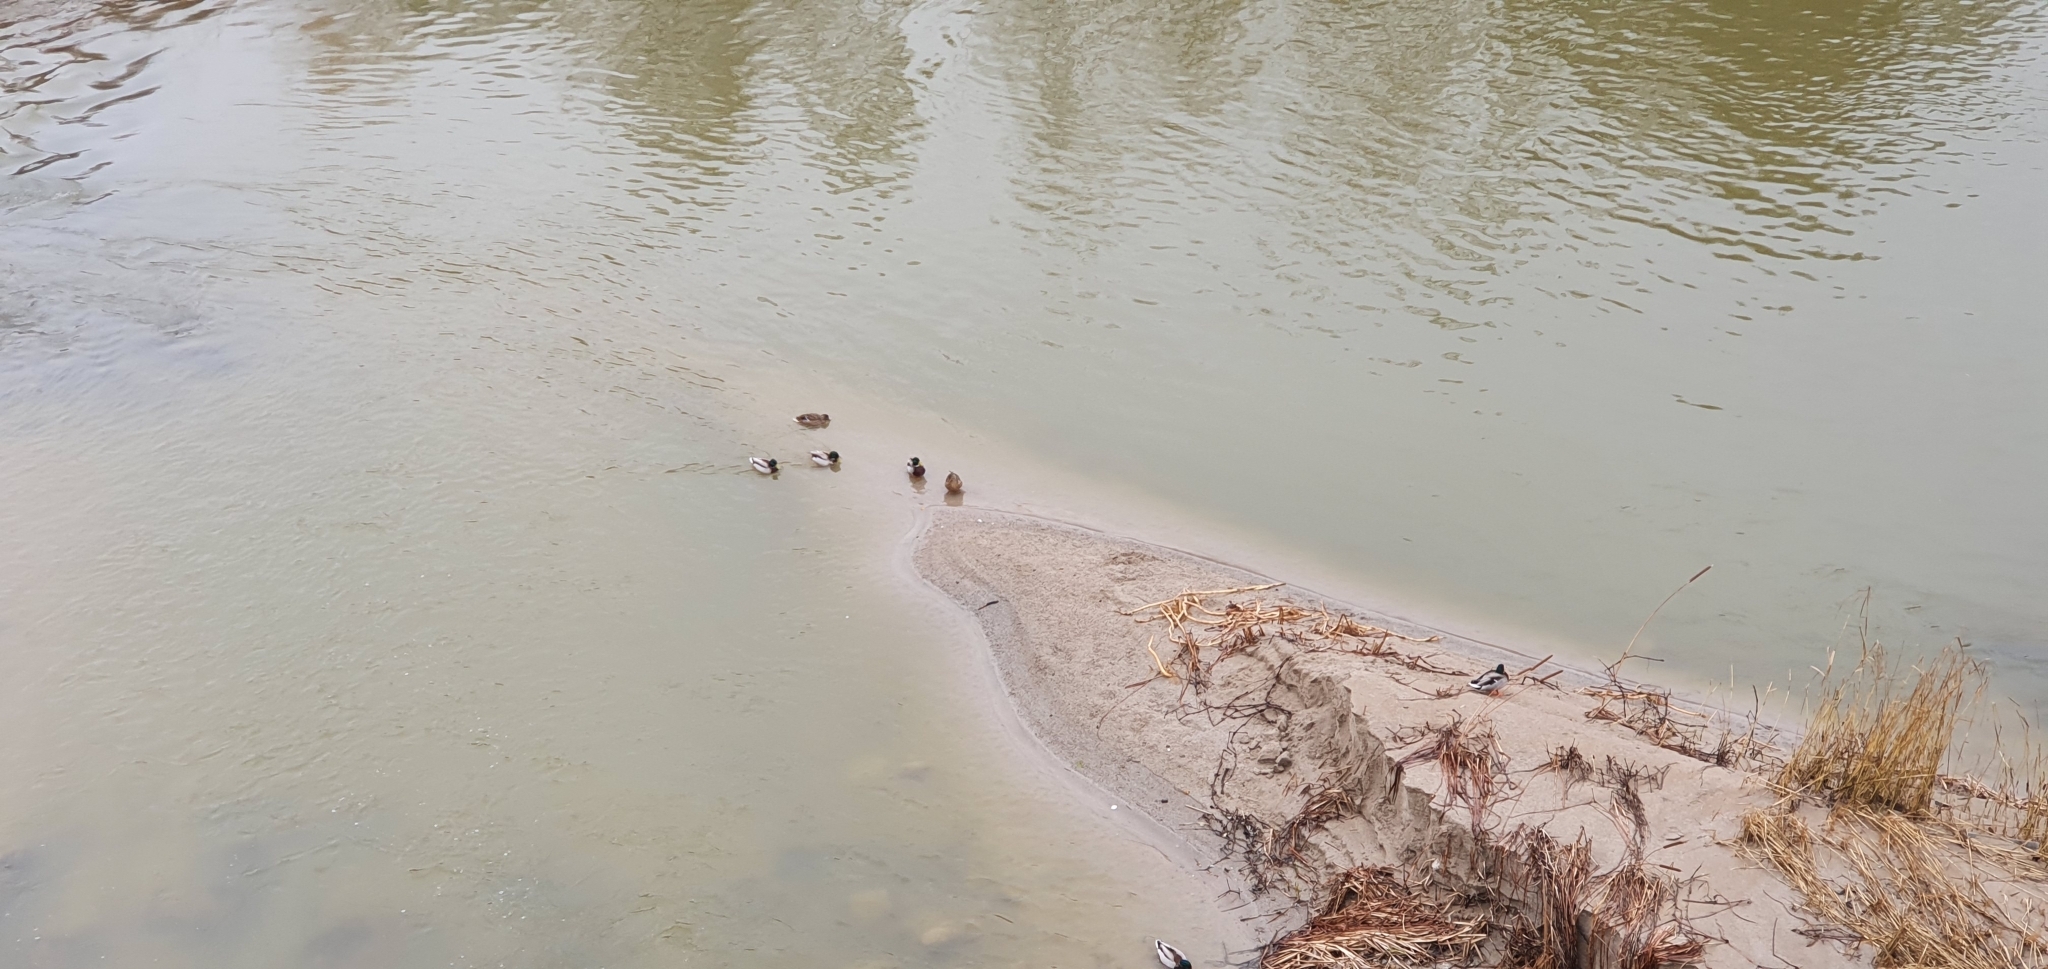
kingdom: Animalia
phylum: Chordata
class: Aves
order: Anseriformes
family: Anatidae
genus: Anas
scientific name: Anas platyrhynchos
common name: Mallard
